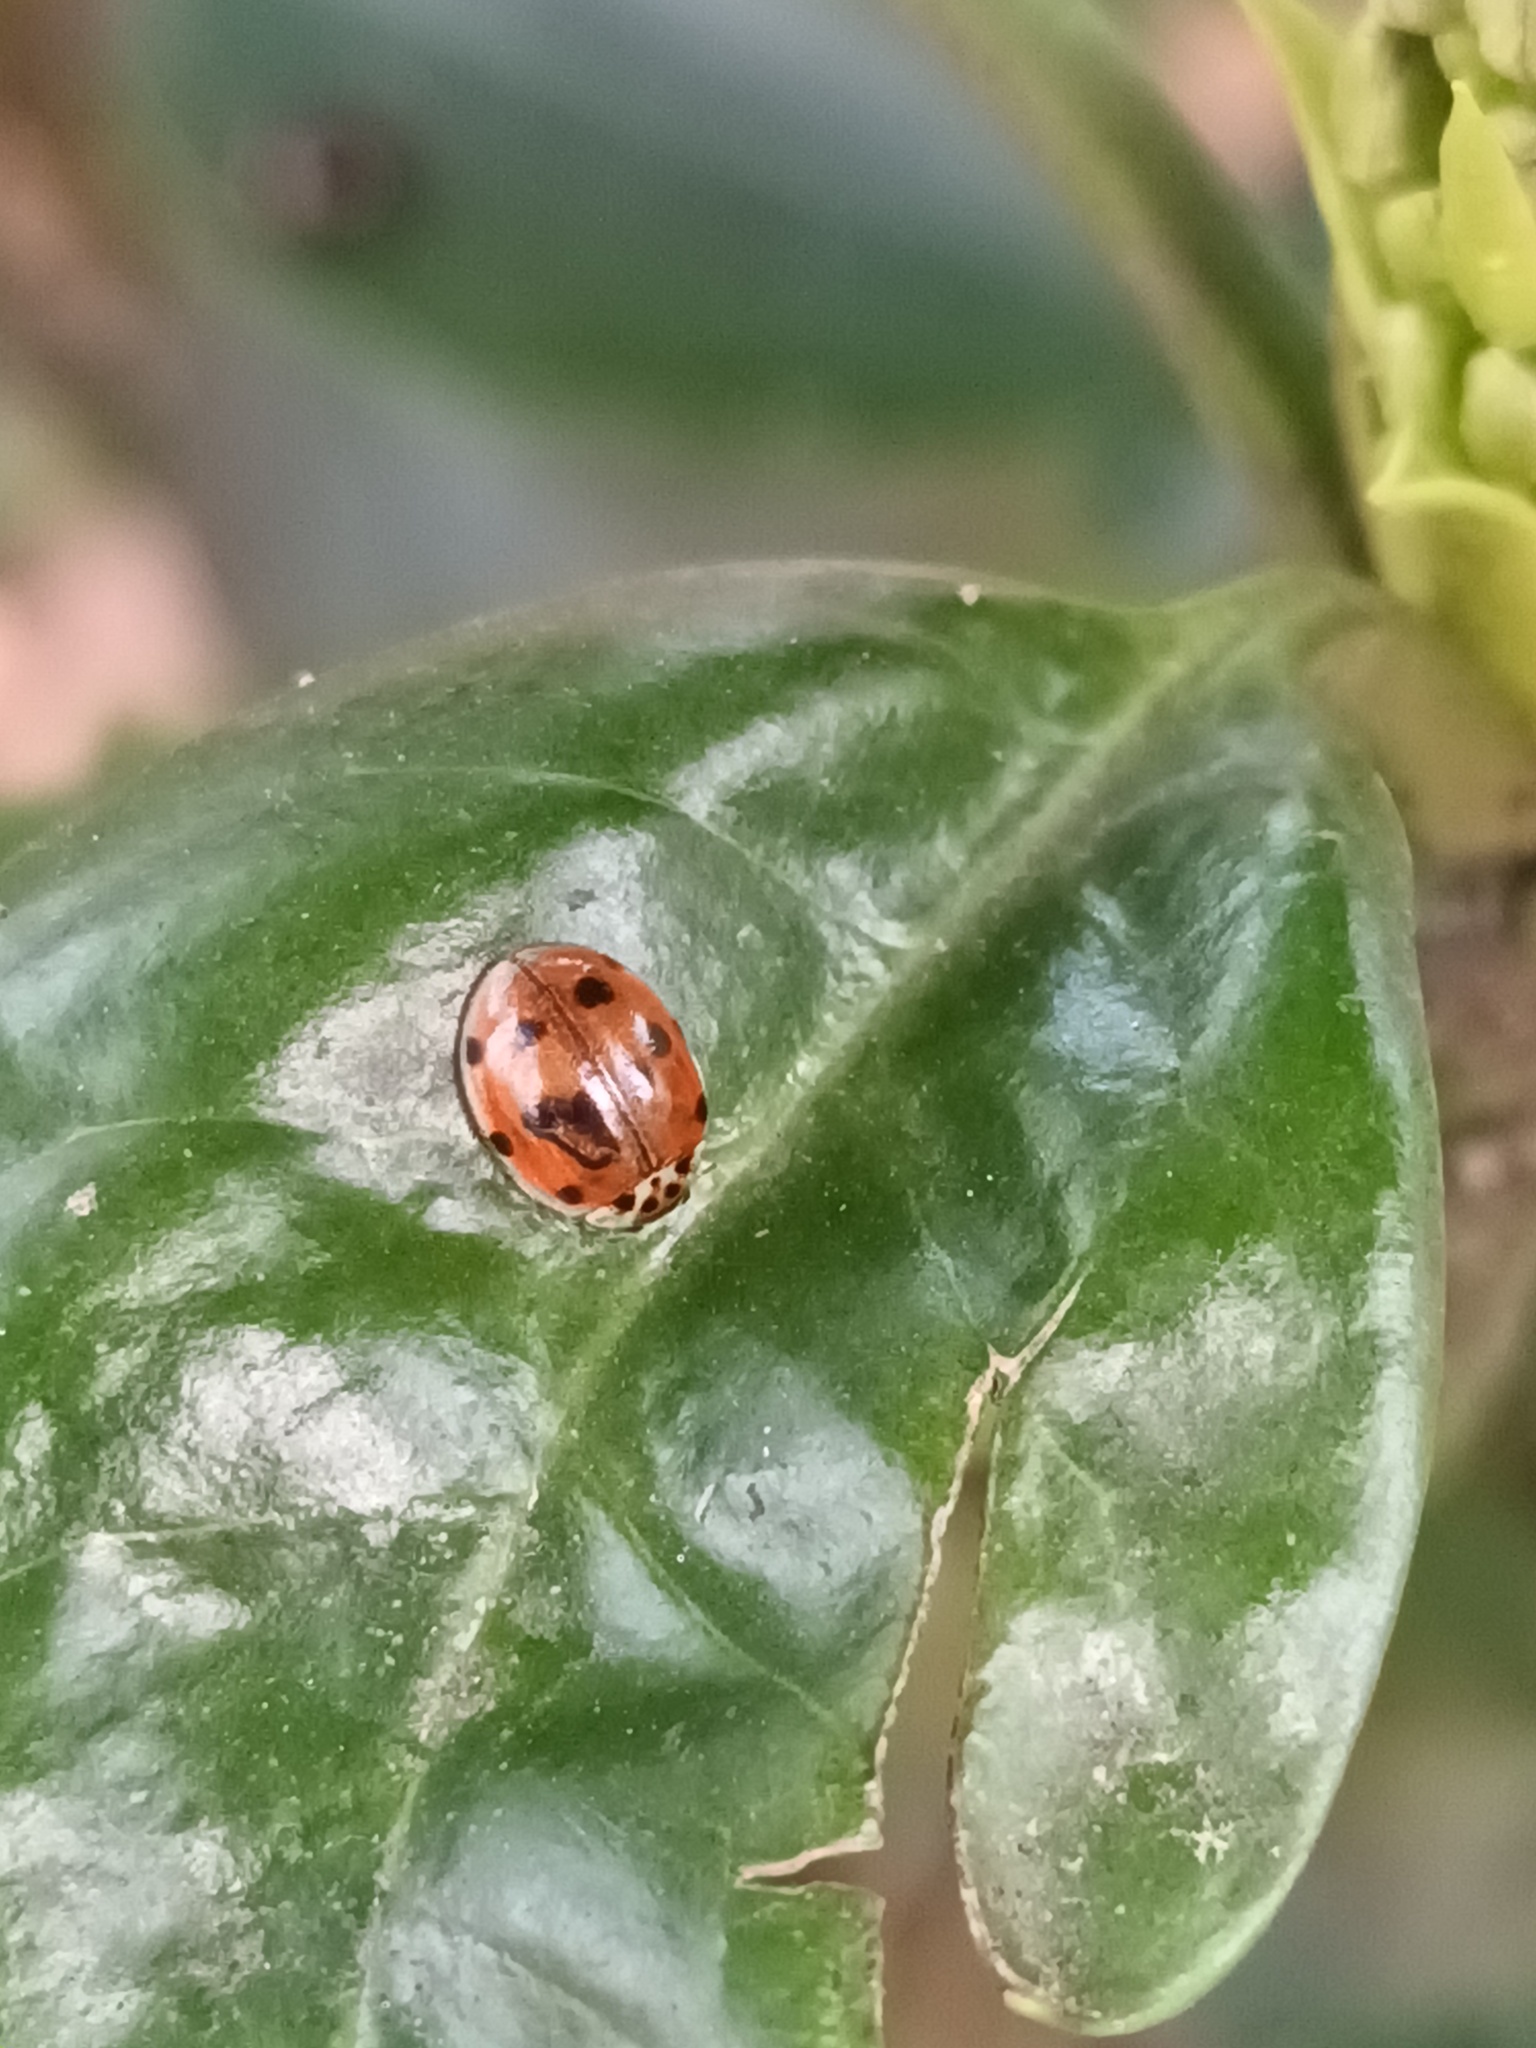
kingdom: Animalia
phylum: Arthropoda
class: Insecta
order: Coleoptera
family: Coccinellidae
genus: Adalia
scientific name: Adalia decempunctata
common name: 10-spot ladybird
